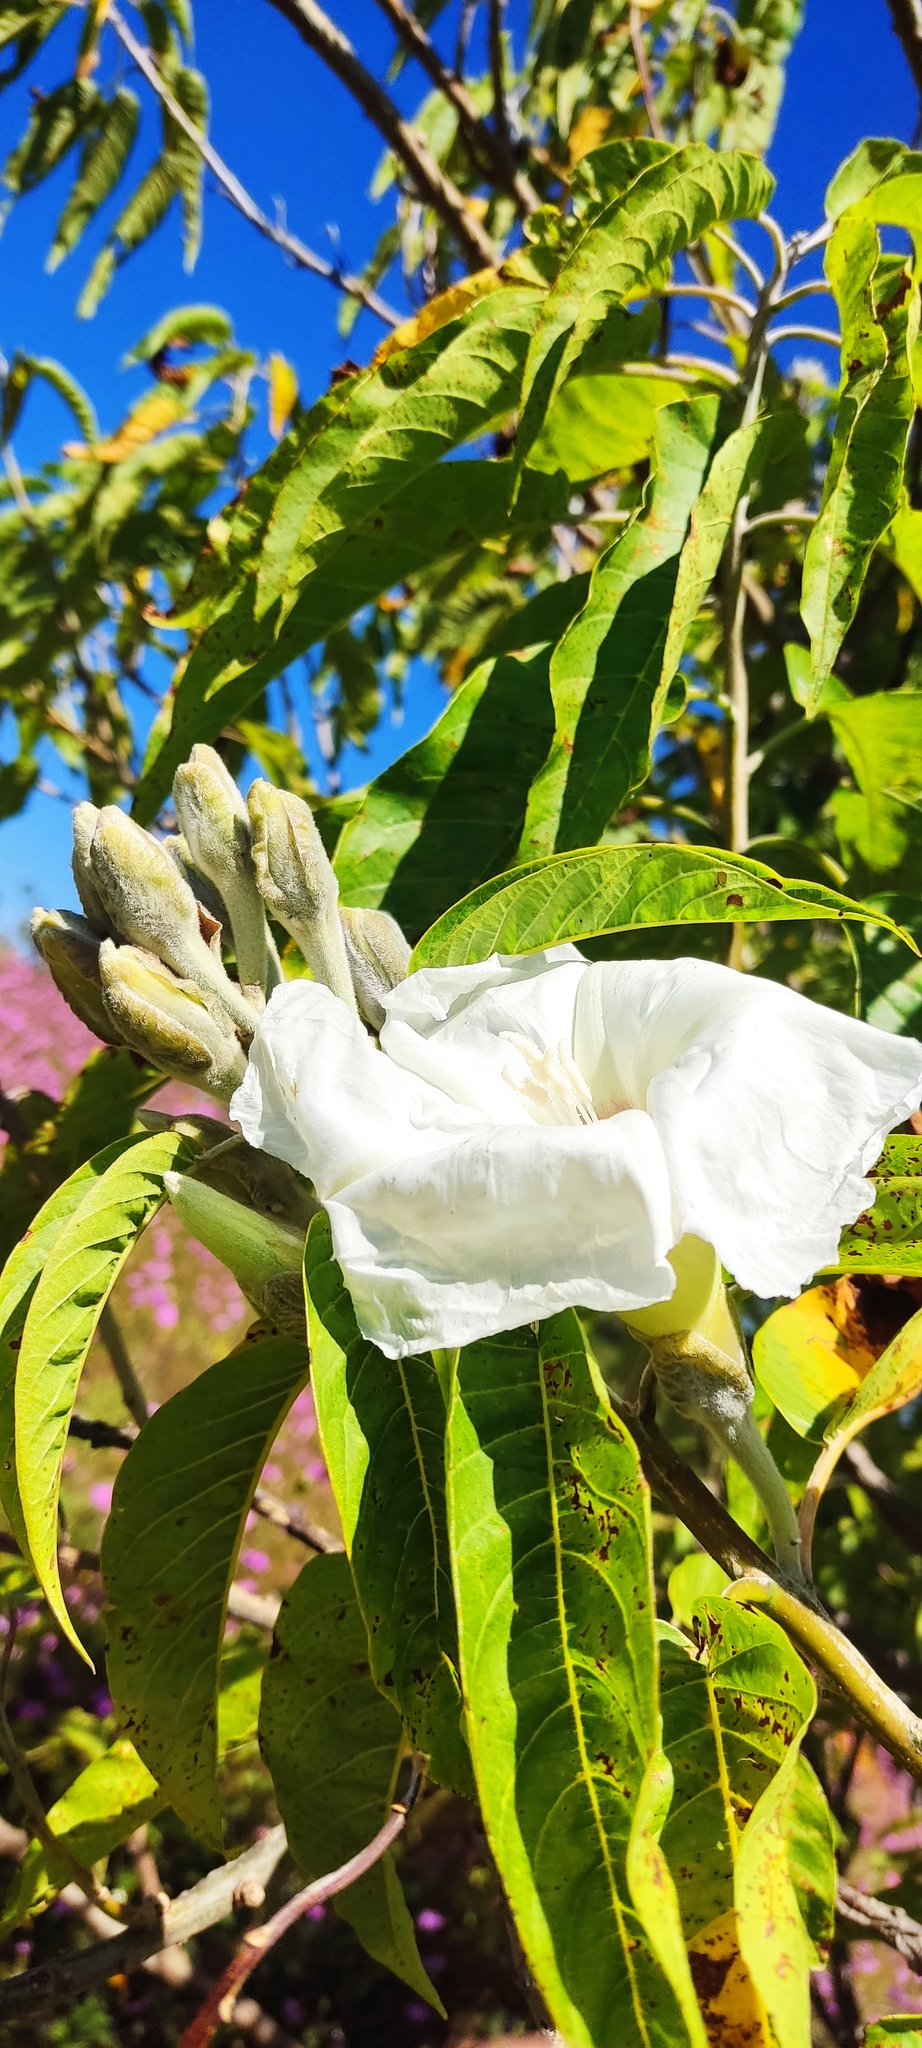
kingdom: Plantae
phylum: Tracheophyta
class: Magnoliopsida
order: Solanales
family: Convolvulaceae
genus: Ipomoea
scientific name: Ipomoea murucoides
